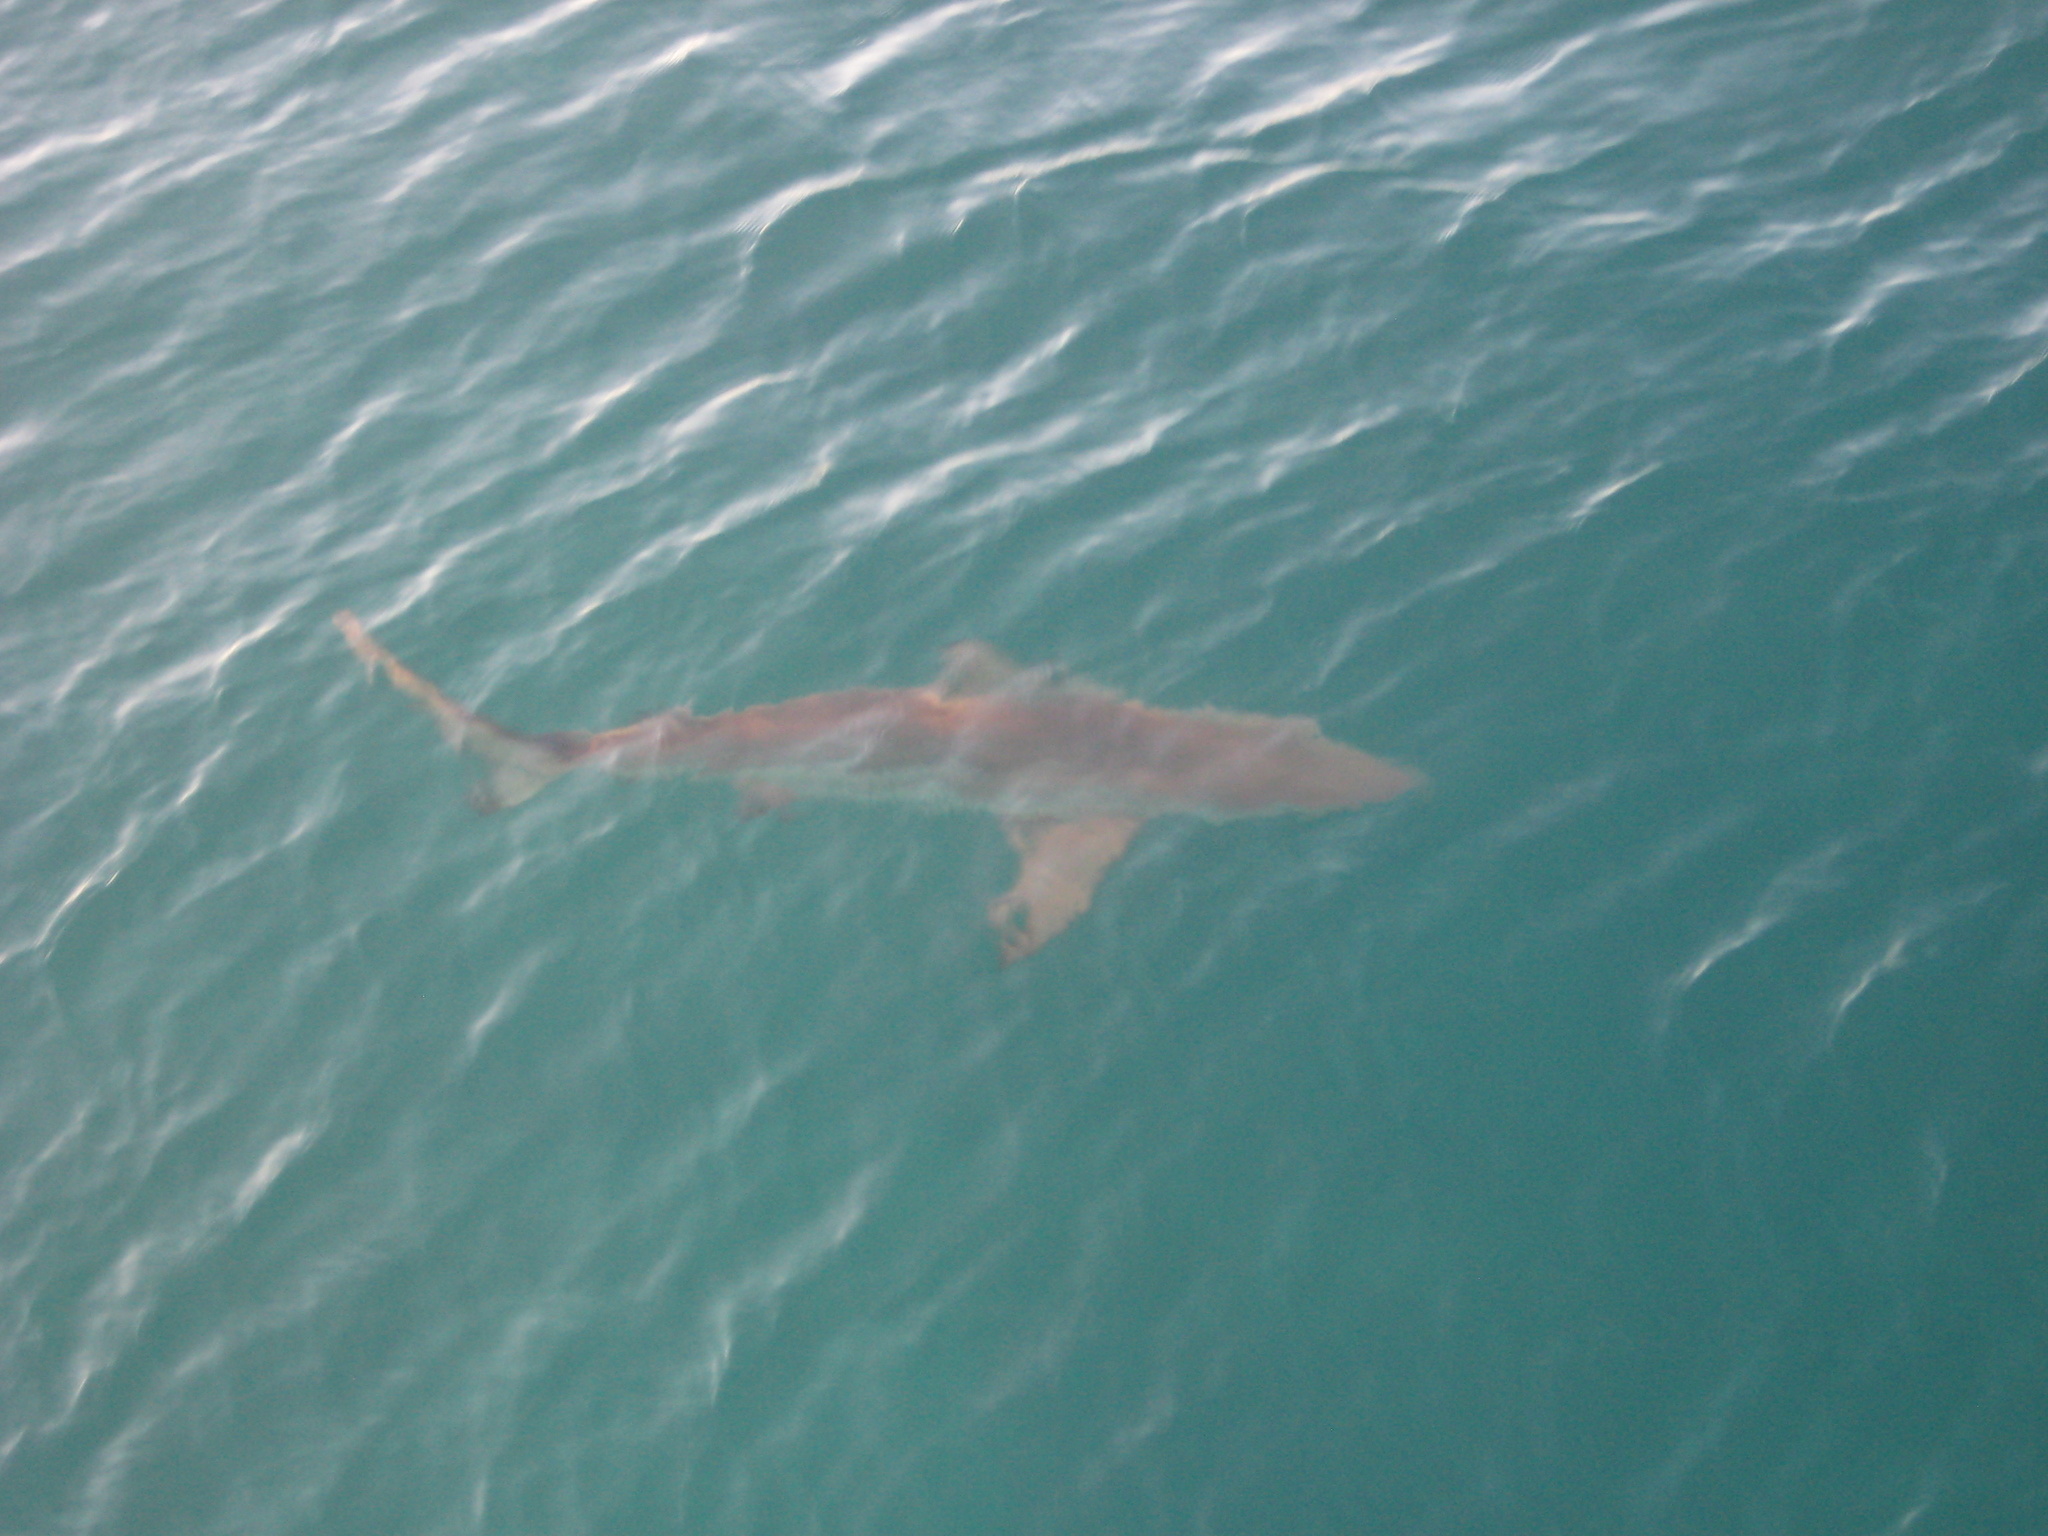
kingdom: Animalia
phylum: Chordata
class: Elasmobranchii
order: Carcharhiniformes
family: Carcharhinidae
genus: Carcharhinus
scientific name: Carcharhinus limbatus
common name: Blacktip shark
